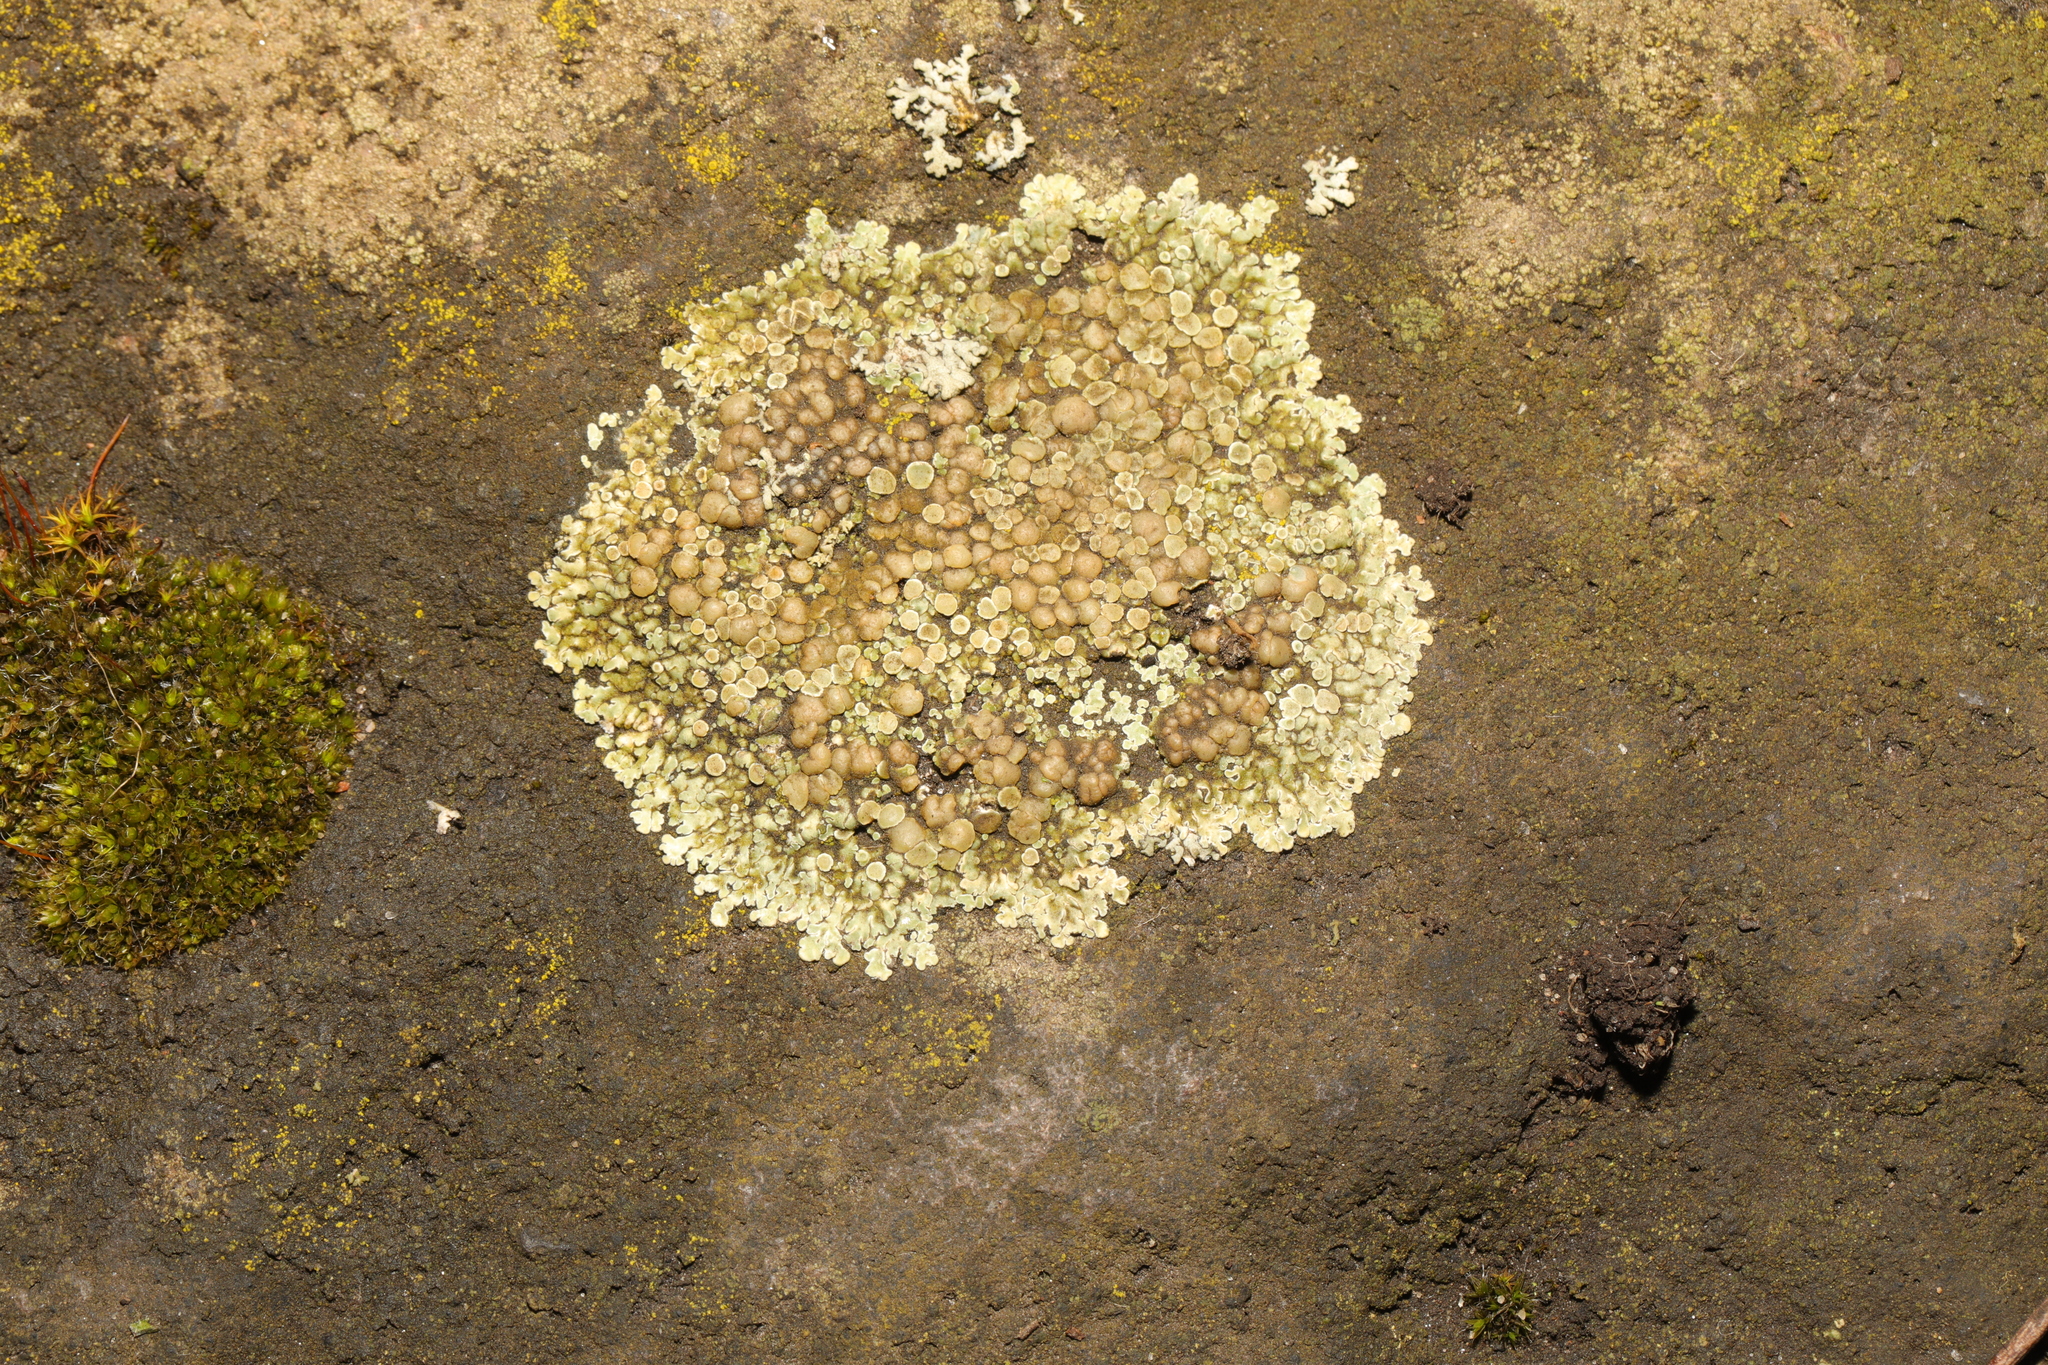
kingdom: Fungi
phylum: Ascomycota
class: Lecanoromycetes
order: Lecanorales
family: Lecanoraceae
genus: Protoparmeliopsis
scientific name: Protoparmeliopsis muralis
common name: Stonewall rim lichen
